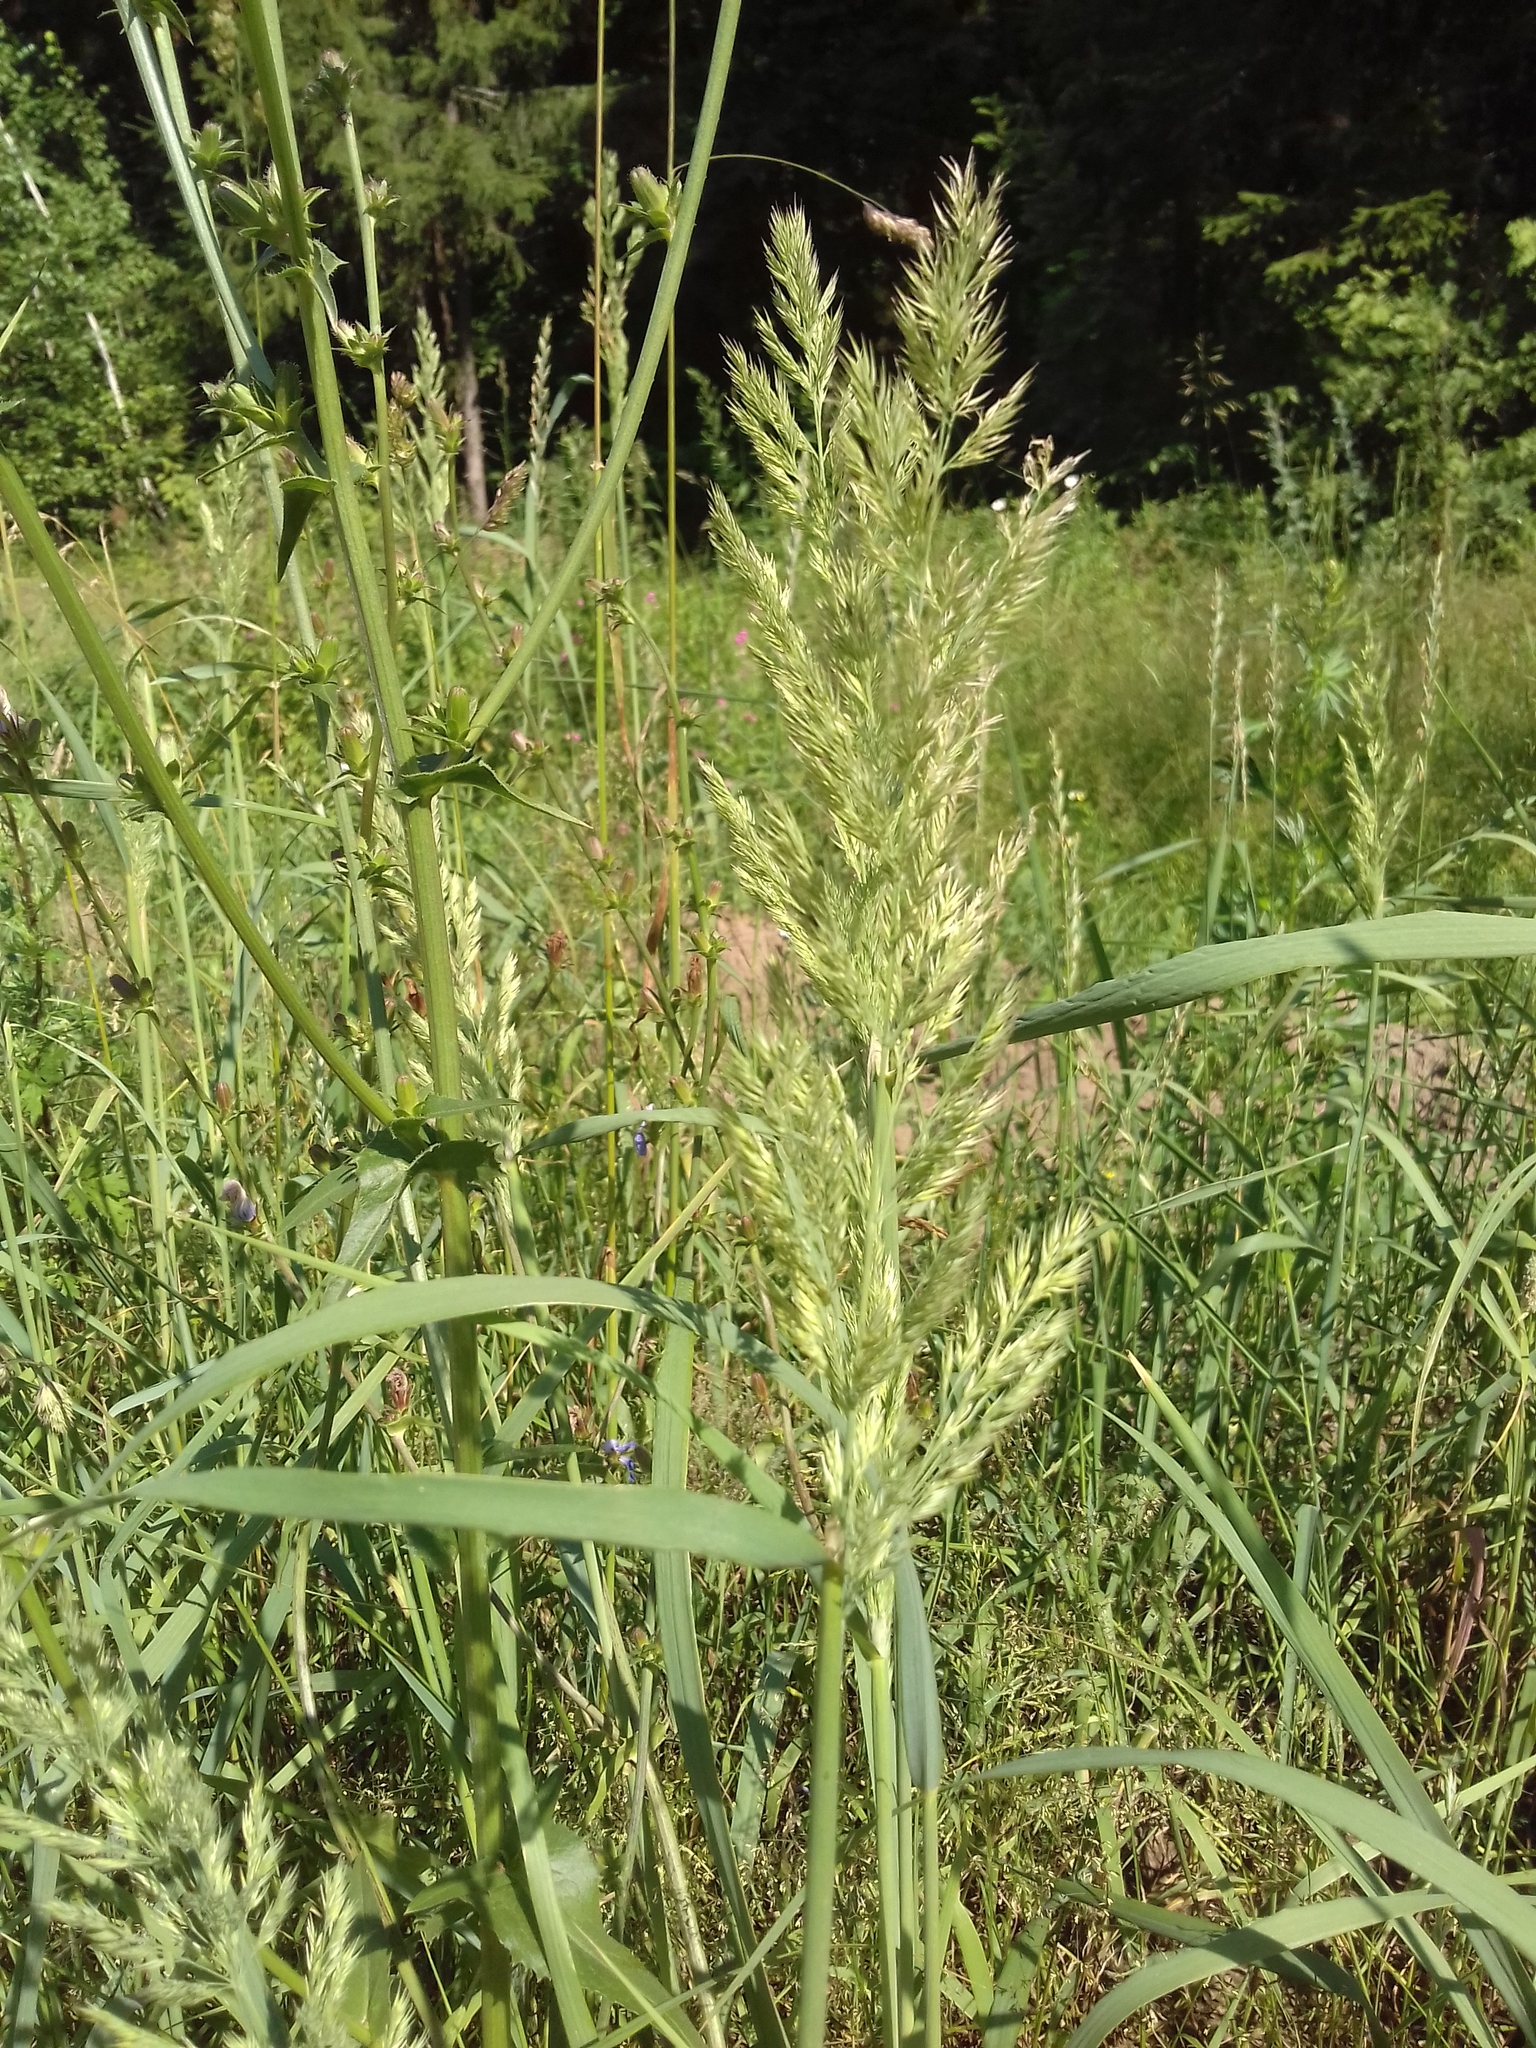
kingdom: Plantae
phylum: Tracheophyta
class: Liliopsida
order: Poales
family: Poaceae
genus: Calamagrostis
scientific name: Calamagrostis epigejos
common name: Wood small-reed
